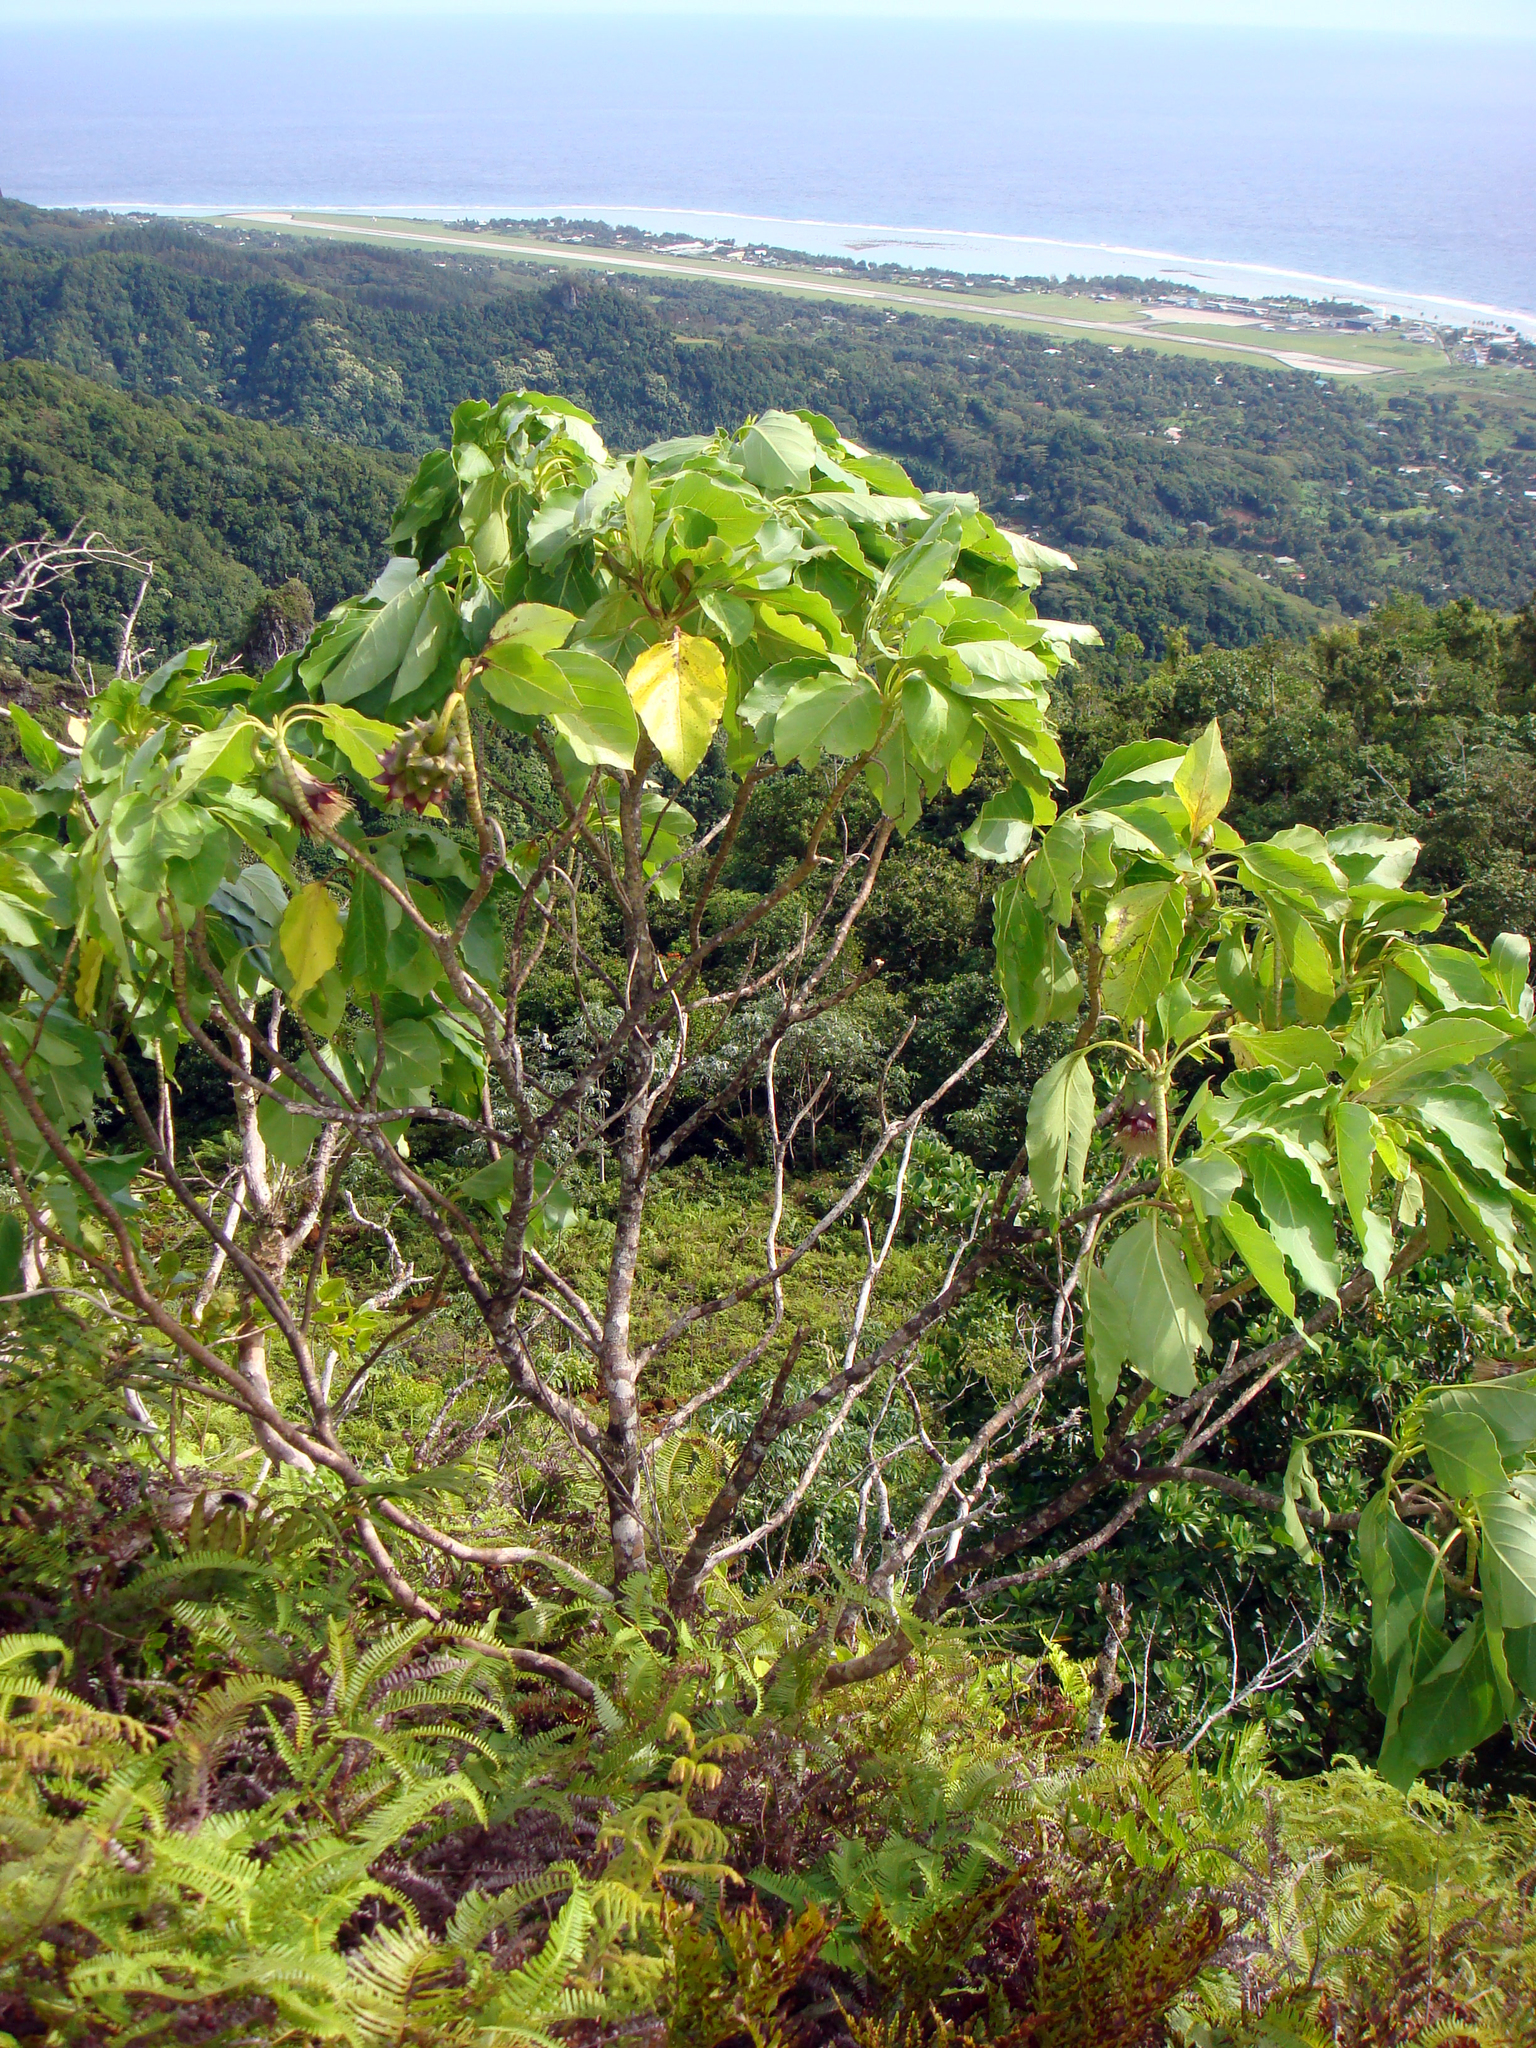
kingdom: Plantae
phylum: Tracheophyta
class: Magnoliopsida
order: Asterales
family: Asteraceae
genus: Fitchia
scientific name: Fitchia speciosa
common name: Burr daisytree
